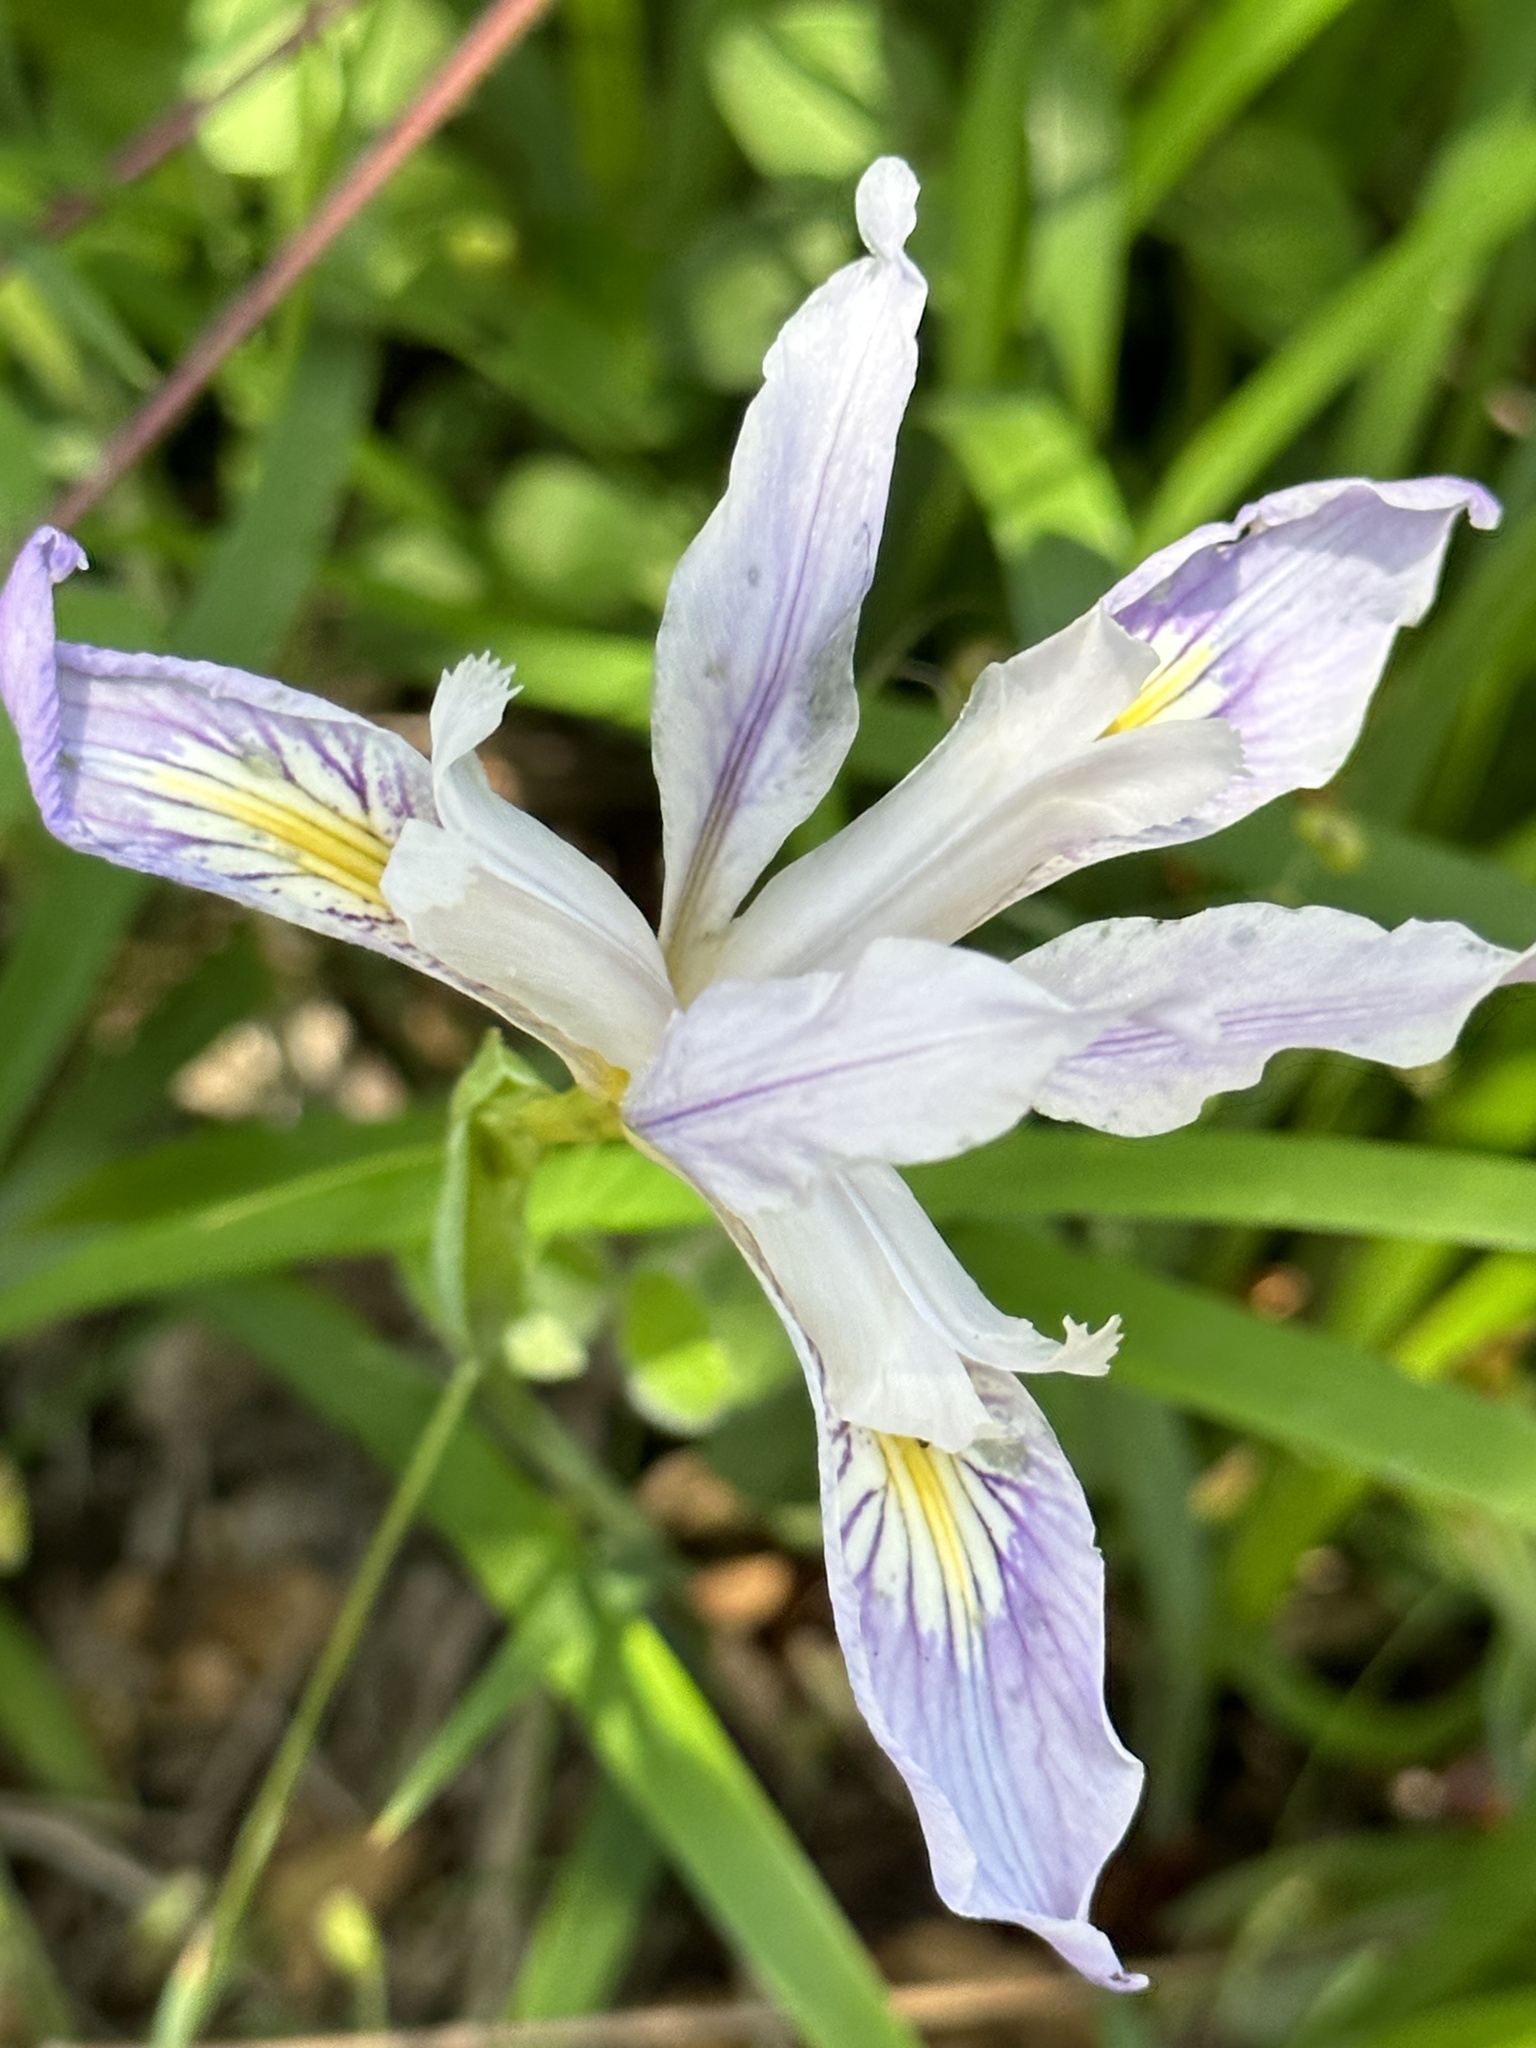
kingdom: Plantae
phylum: Tracheophyta
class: Liliopsida
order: Asparagales
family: Iridaceae
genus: Iris
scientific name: Iris douglasiana
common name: Marin iris
